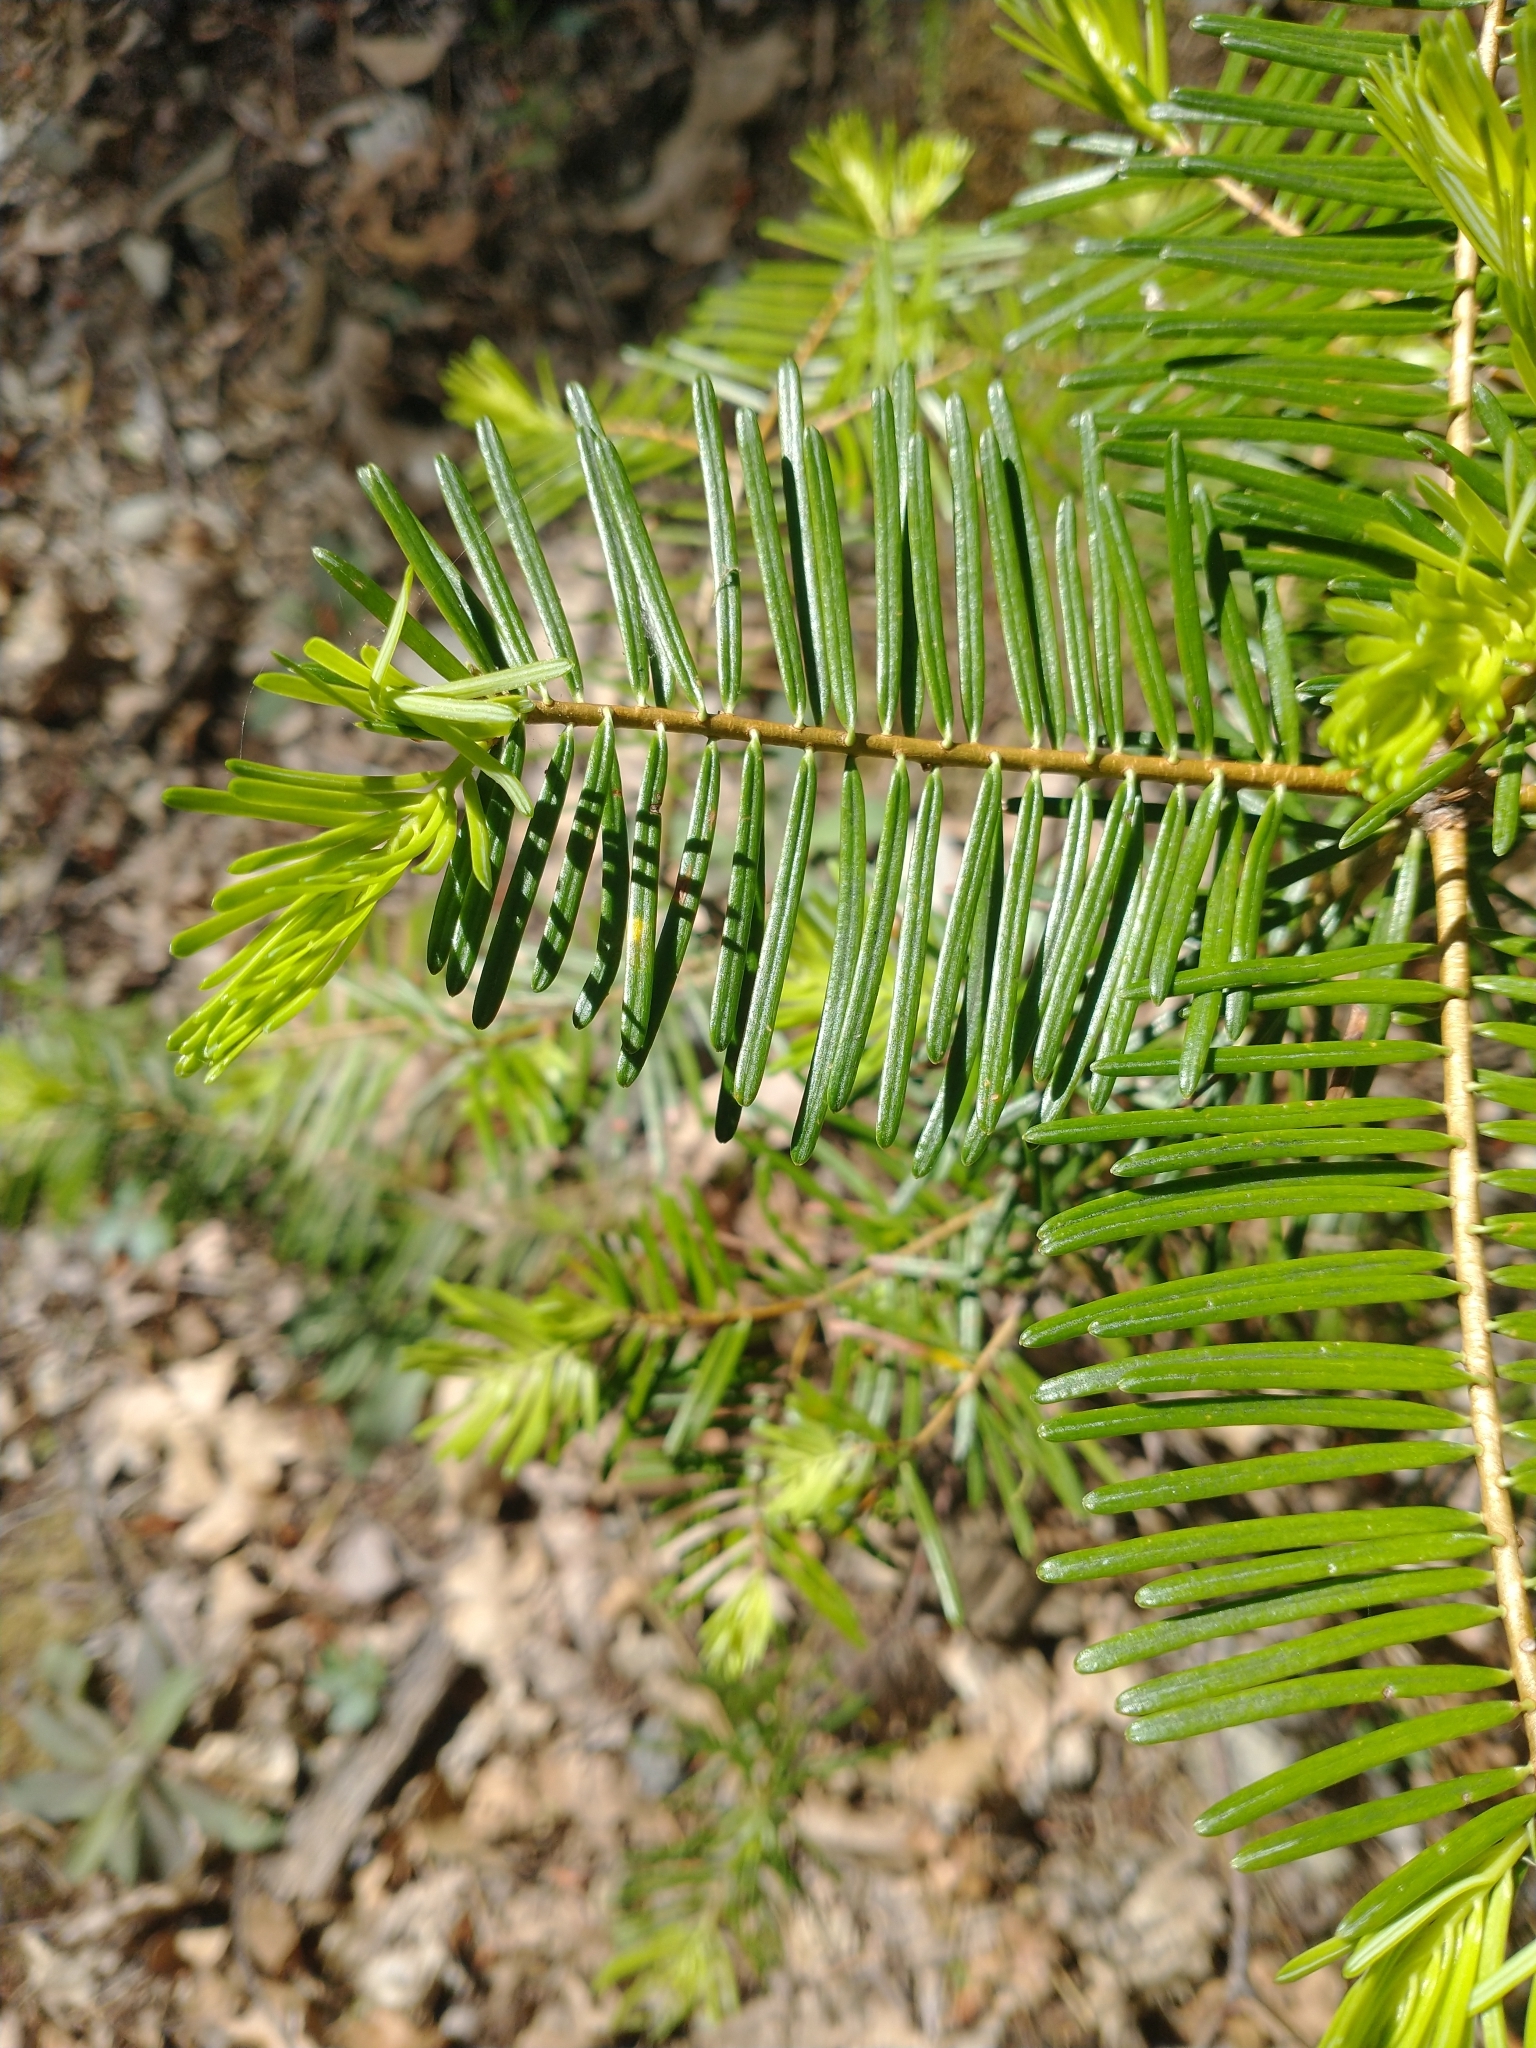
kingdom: Plantae
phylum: Tracheophyta
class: Pinopsida
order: Pinales
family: Pinaceae
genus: Abies
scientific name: Abies concolor
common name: Colorado fir
